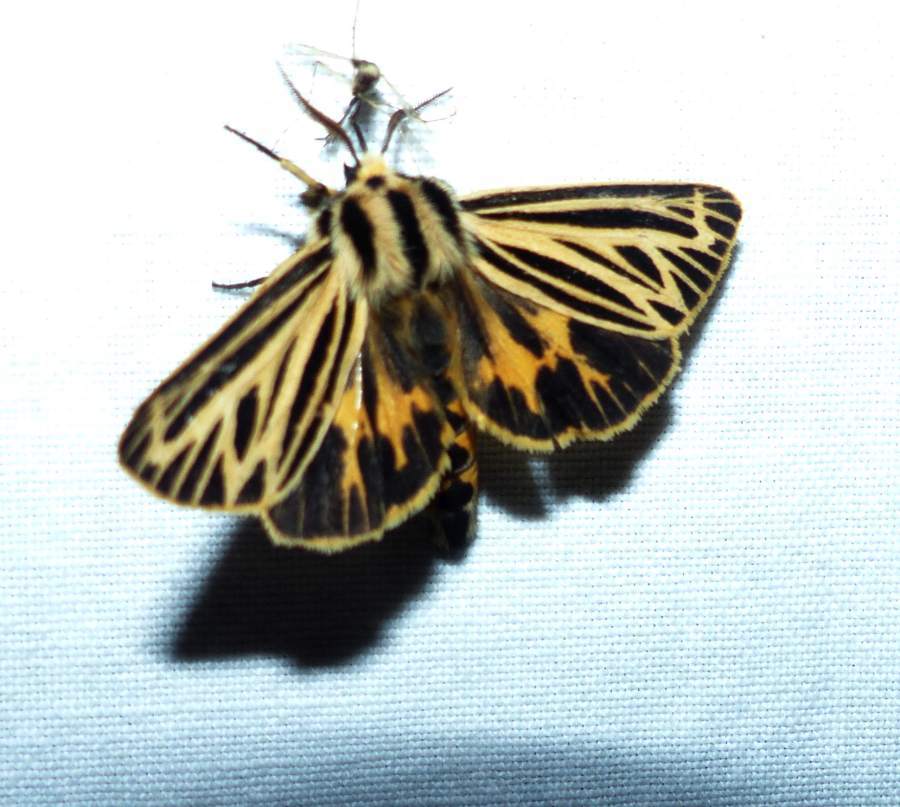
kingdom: Animalia
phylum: Arthropoda
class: Insecta
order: Lepidoptera
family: Erebidae
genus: Grammia
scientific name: Grammia virguncula
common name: Little tiger moth
